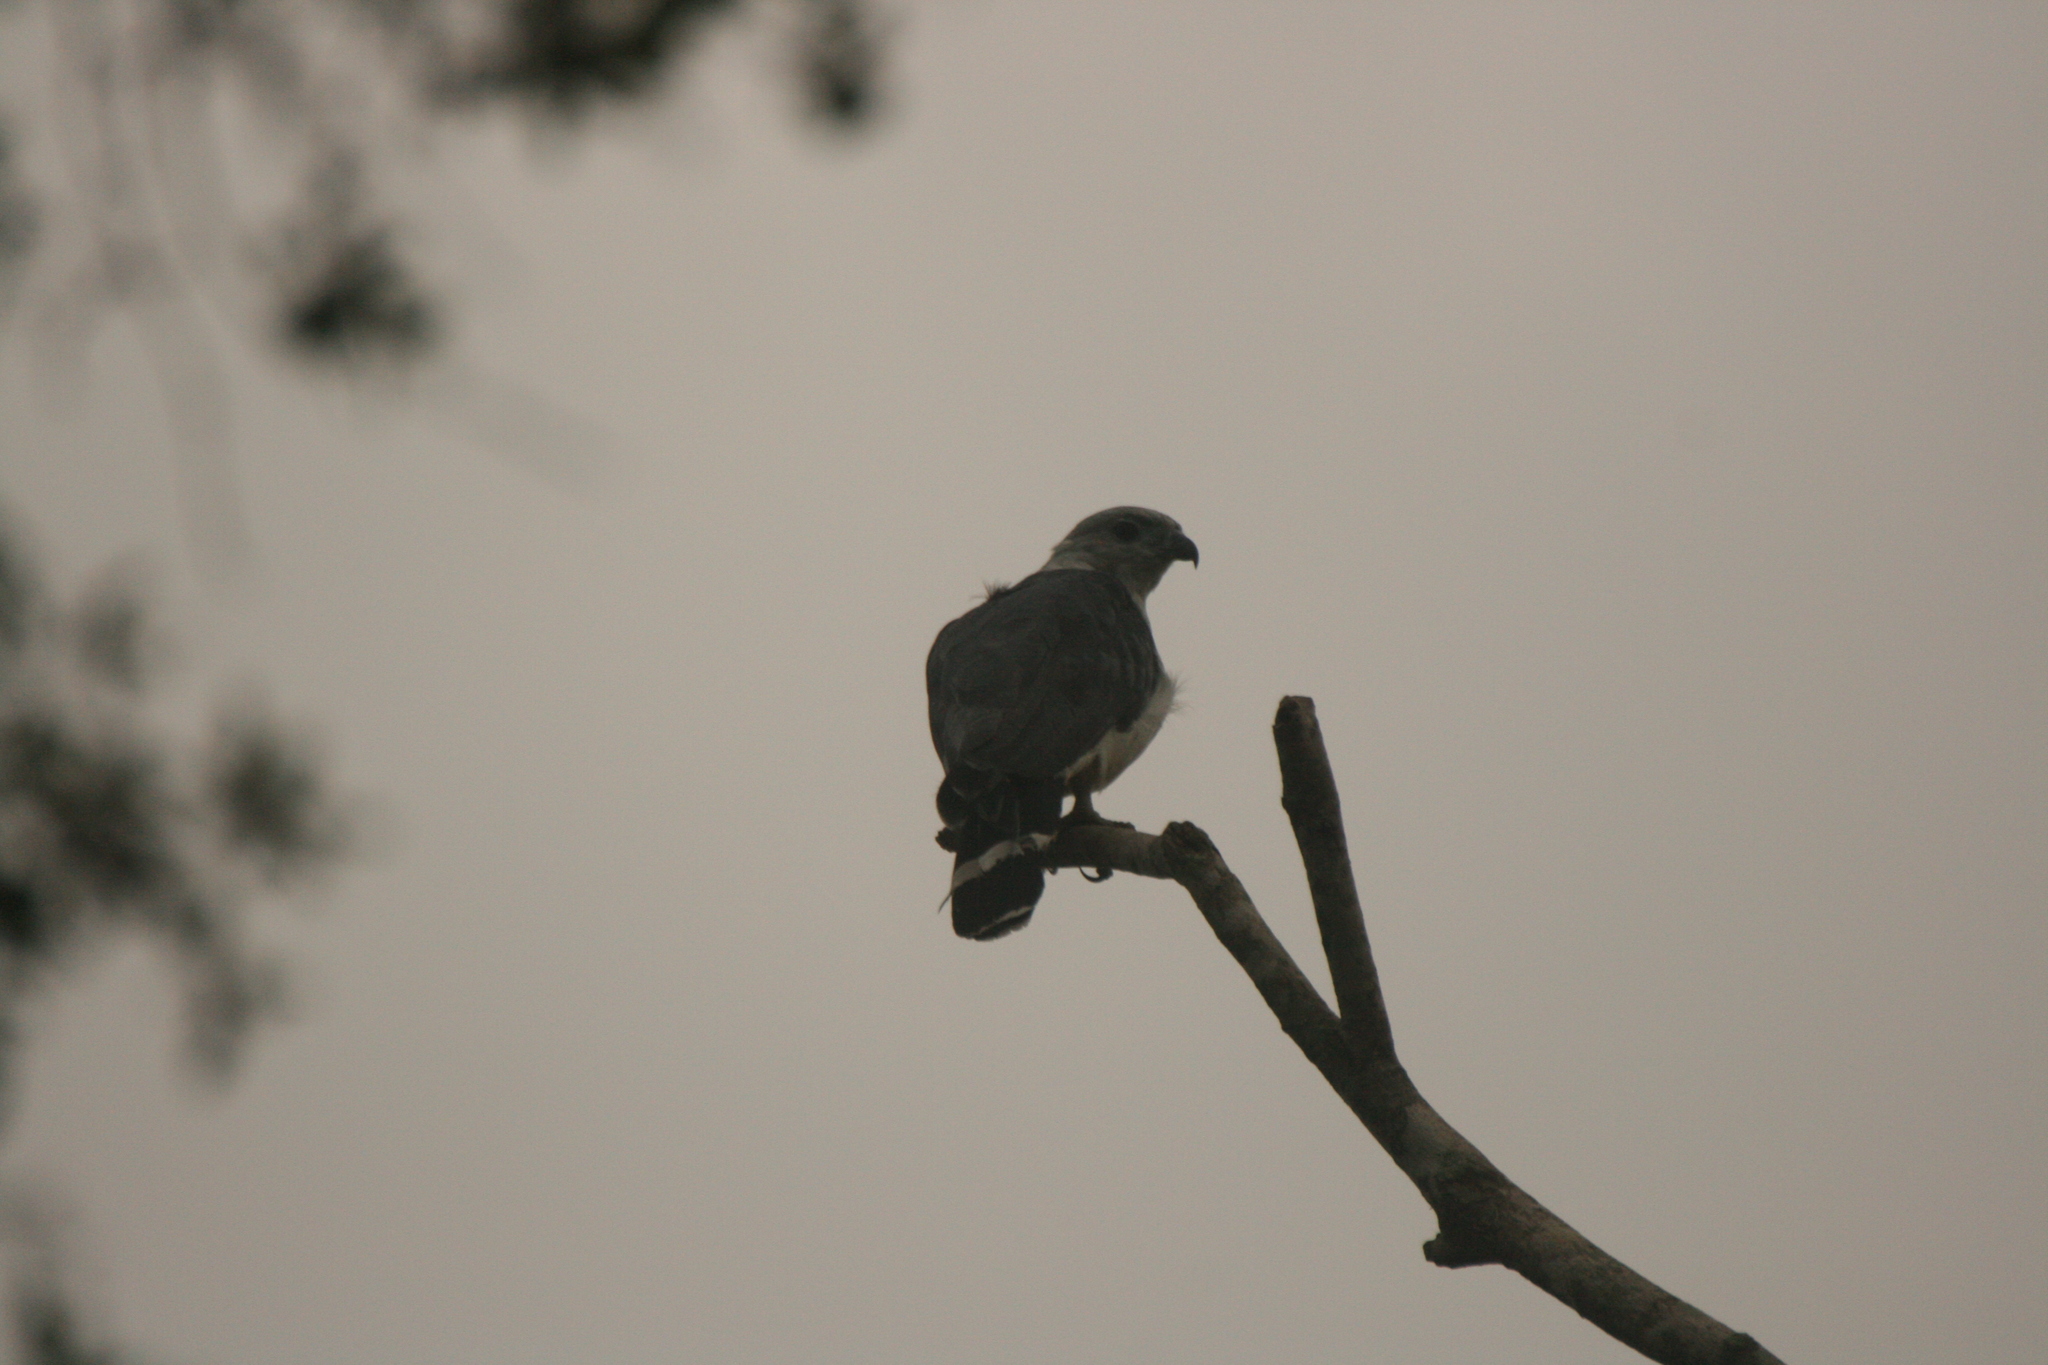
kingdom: Animalia
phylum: Chordata
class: Aves
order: Accipitriformes
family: Accipitridae
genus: Leptodon
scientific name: Leptodon cayanensis
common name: Gray-headed kite
